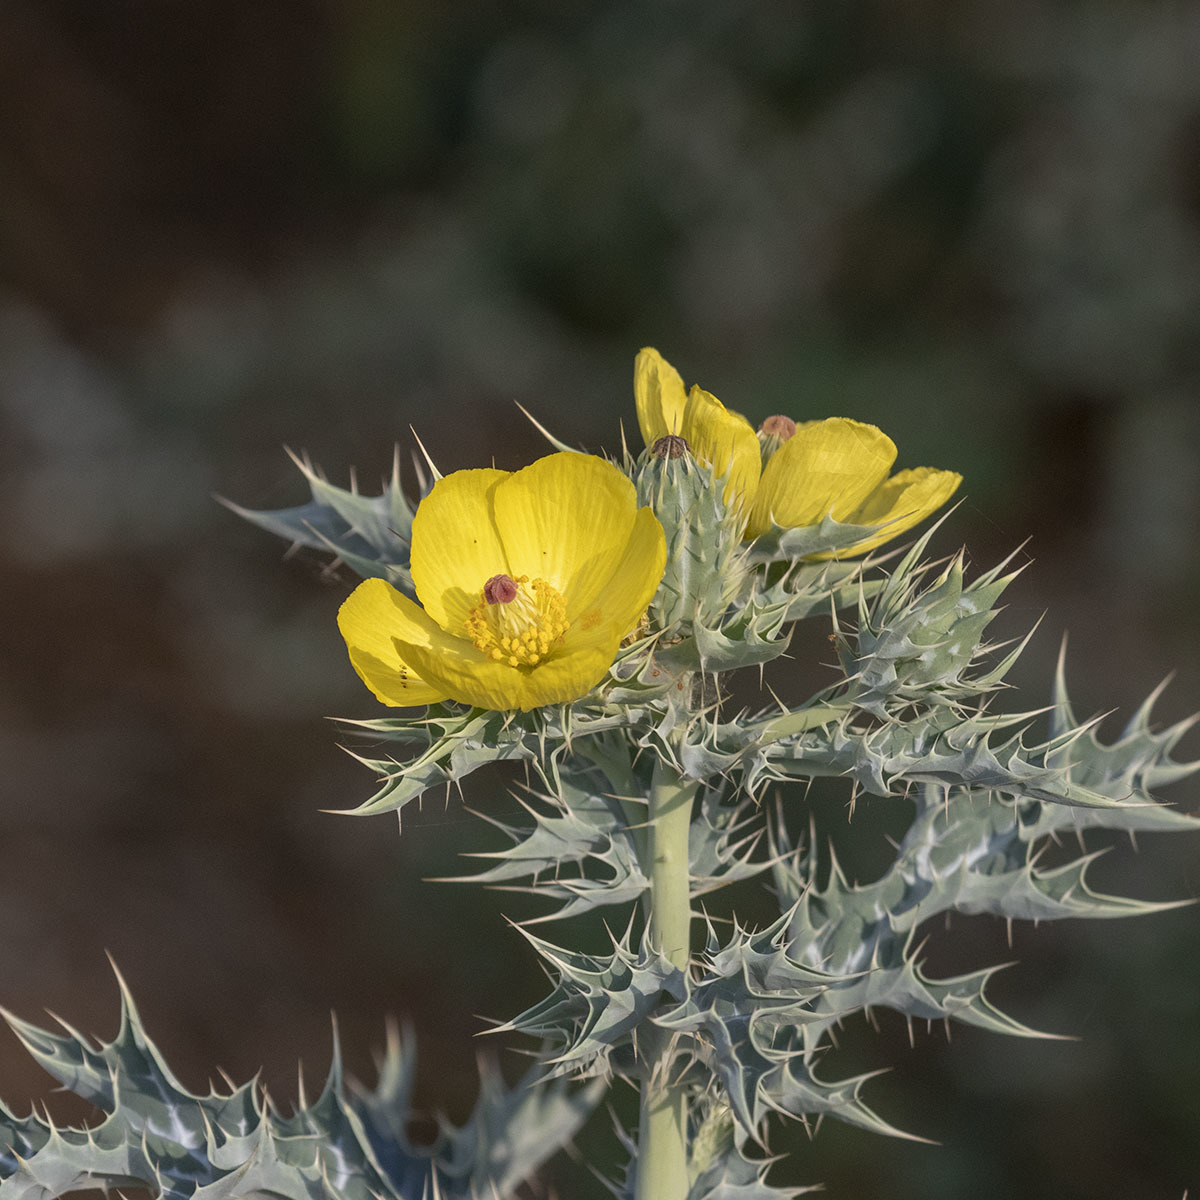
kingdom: Plantae
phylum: Tracheophyta
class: Magnoliopsida
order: Ranunculales
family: Papaveraceae
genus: Argemone
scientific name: Argemone mexicana
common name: Mexican poppy
